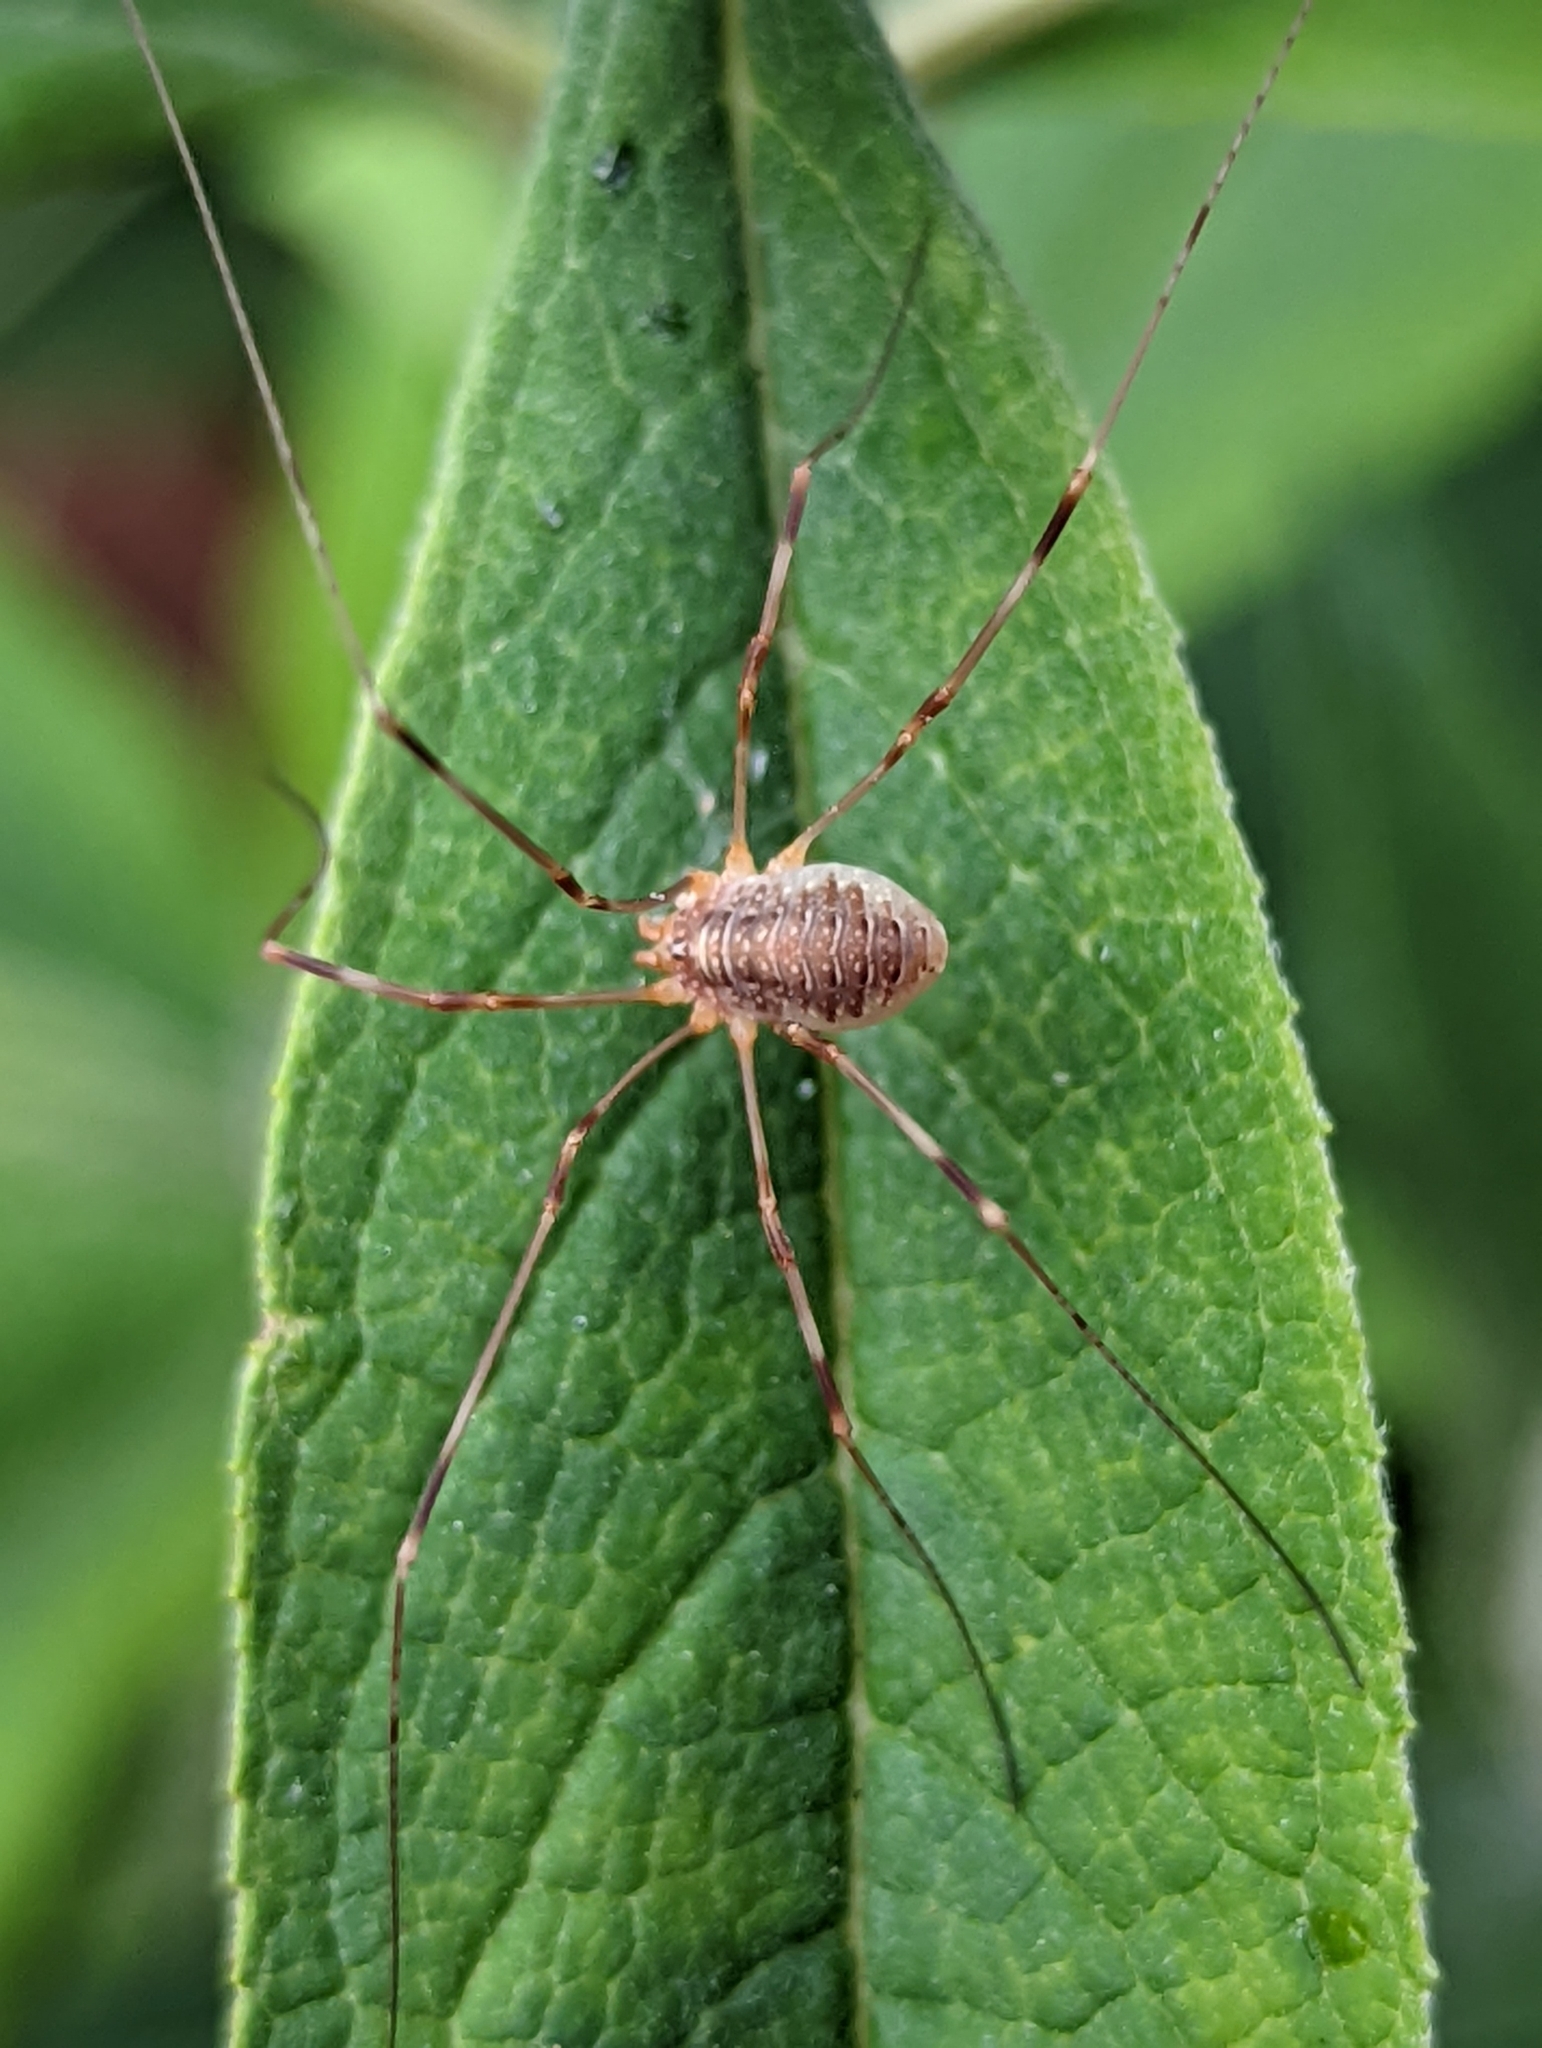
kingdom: Animalia
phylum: Arthropoda
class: Arachnida
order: Opiliones
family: Phalangiidae
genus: Opilio
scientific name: Opilio canestrinii
